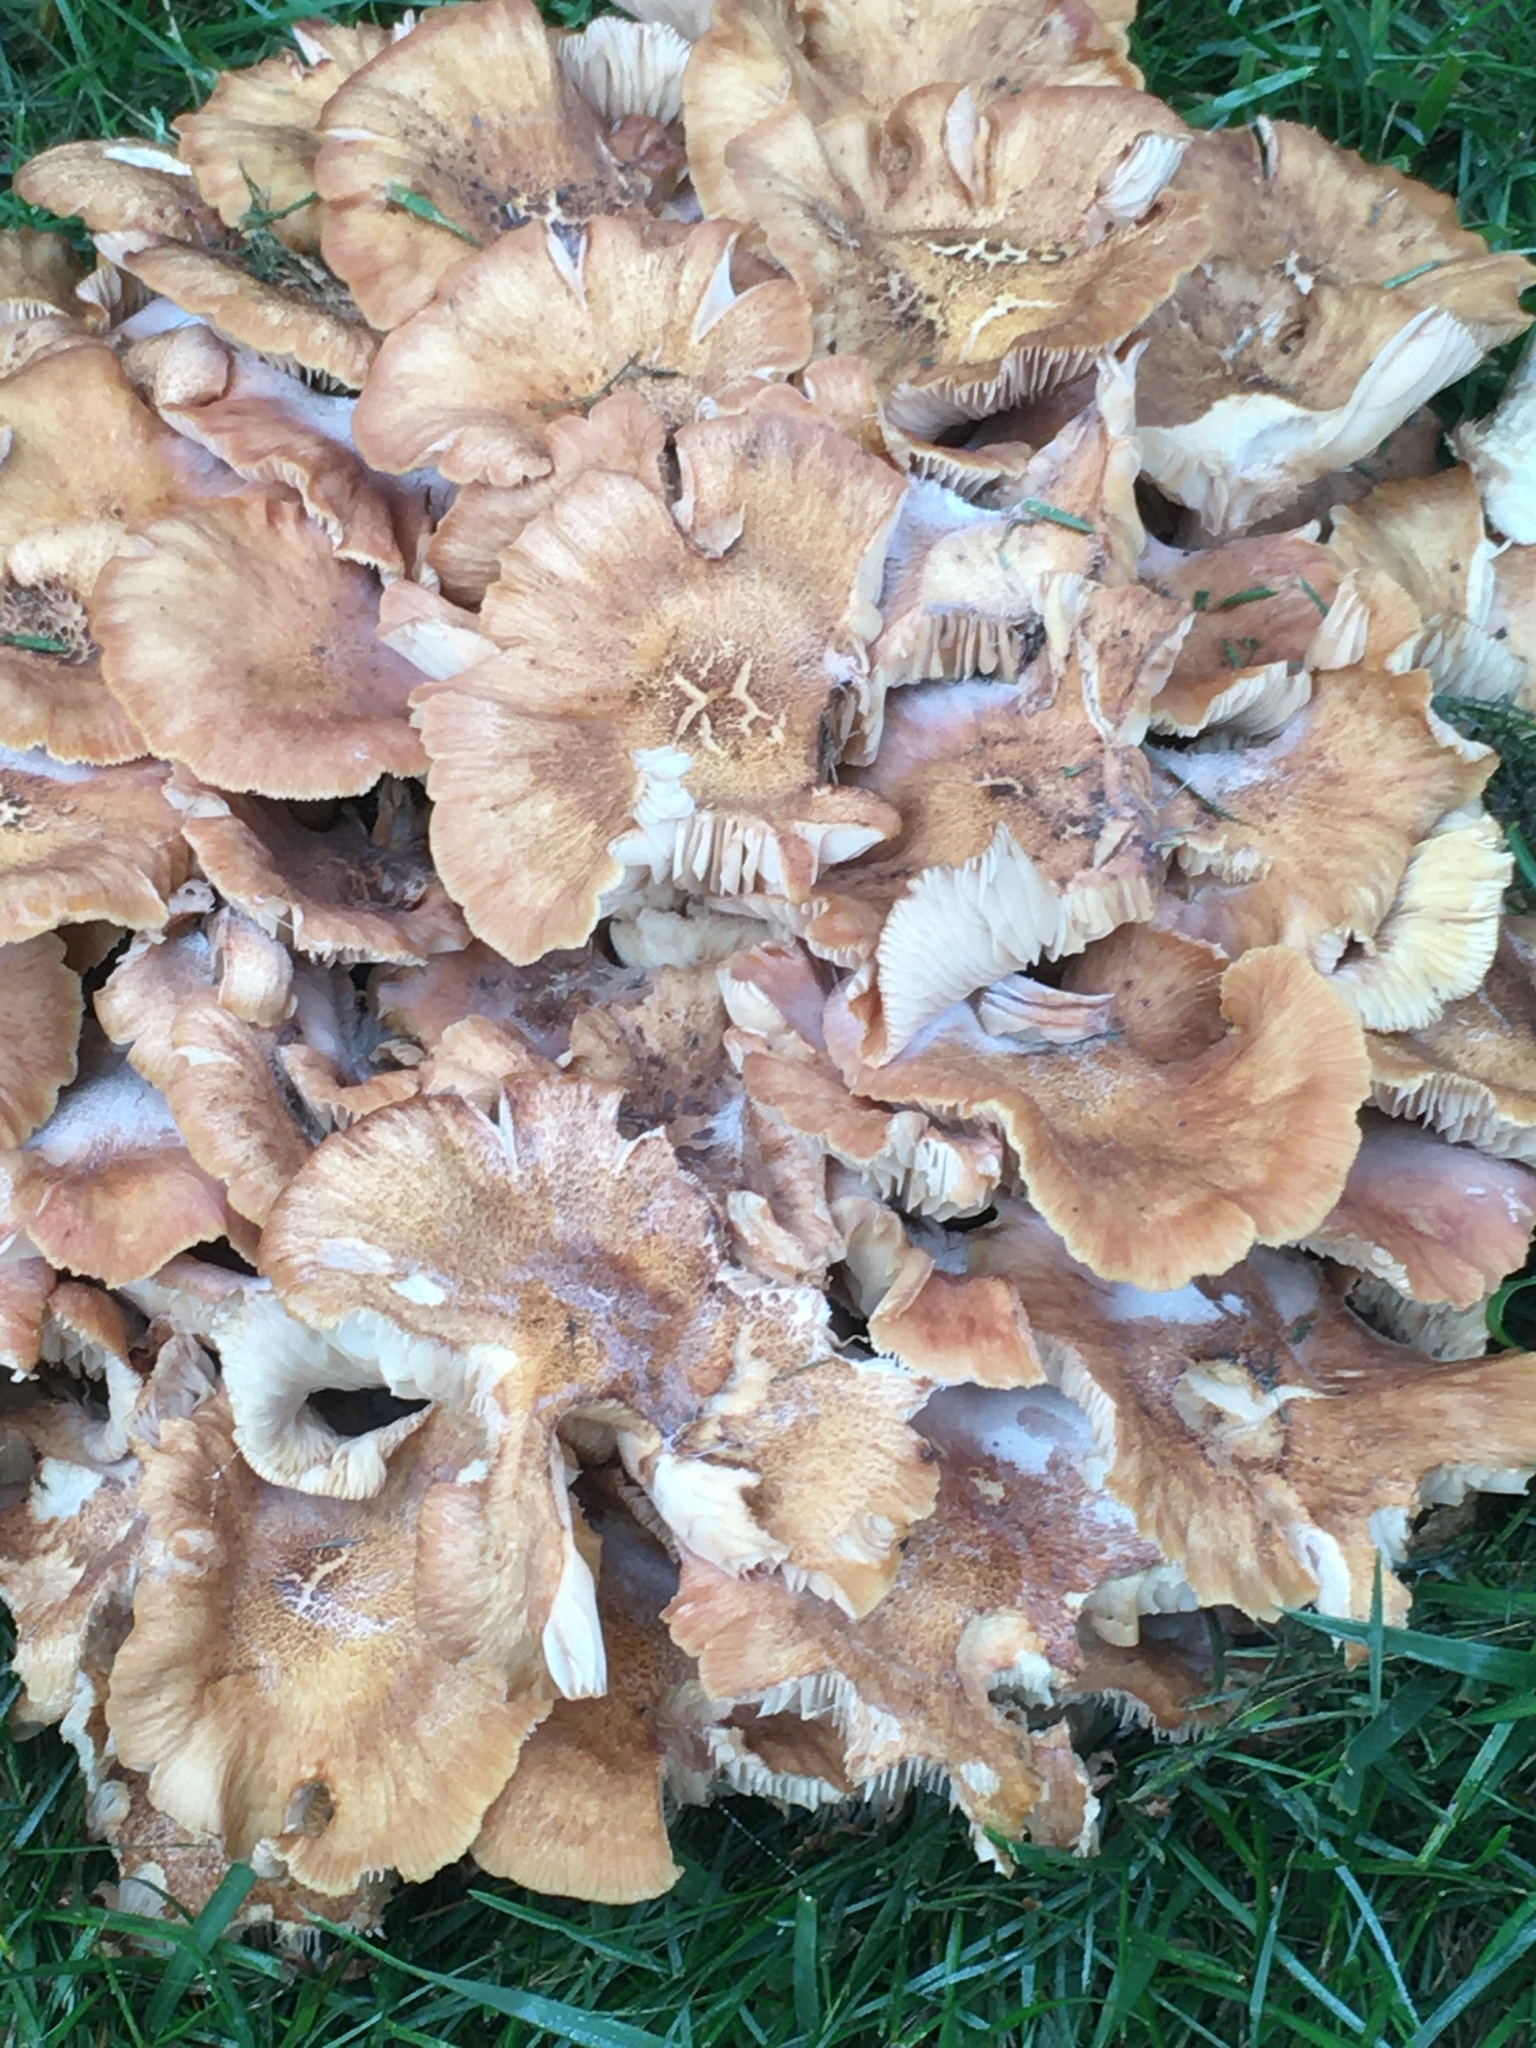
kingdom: Fungi
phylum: Basidiomycota
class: Agaricomycetes
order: Agaricales
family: Physalacriaceae
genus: Desarmillaria
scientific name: Desarmillaria caespitosa
